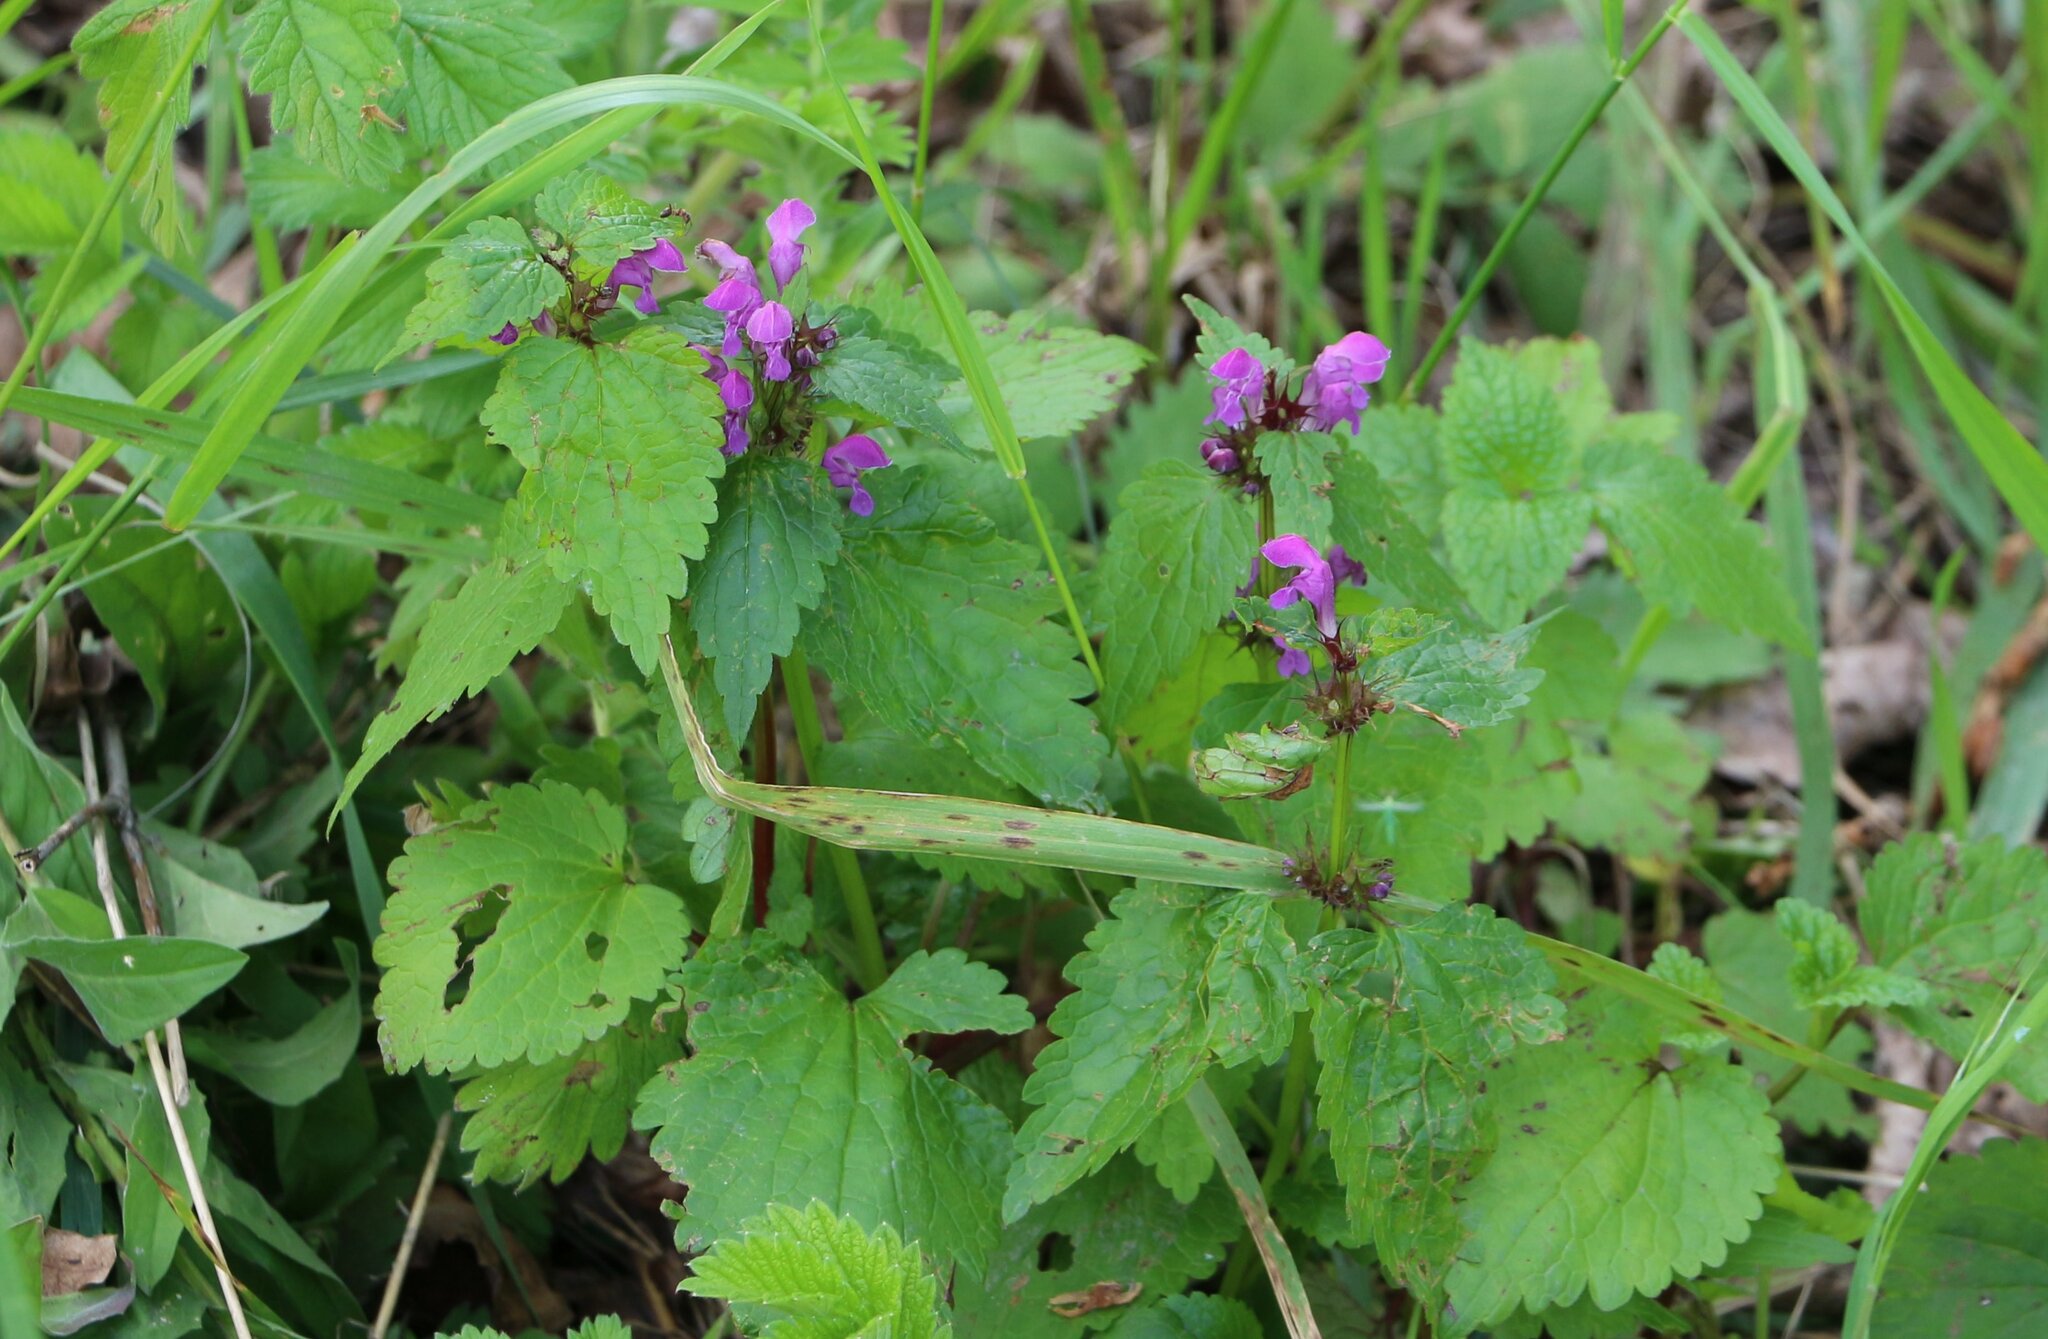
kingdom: Plantae
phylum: Tracheophyta
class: Magnoliopsida
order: Lamiales
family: Lamiaceae
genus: Lamium
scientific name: Lamium maculatum
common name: Spotted dead-nettle
